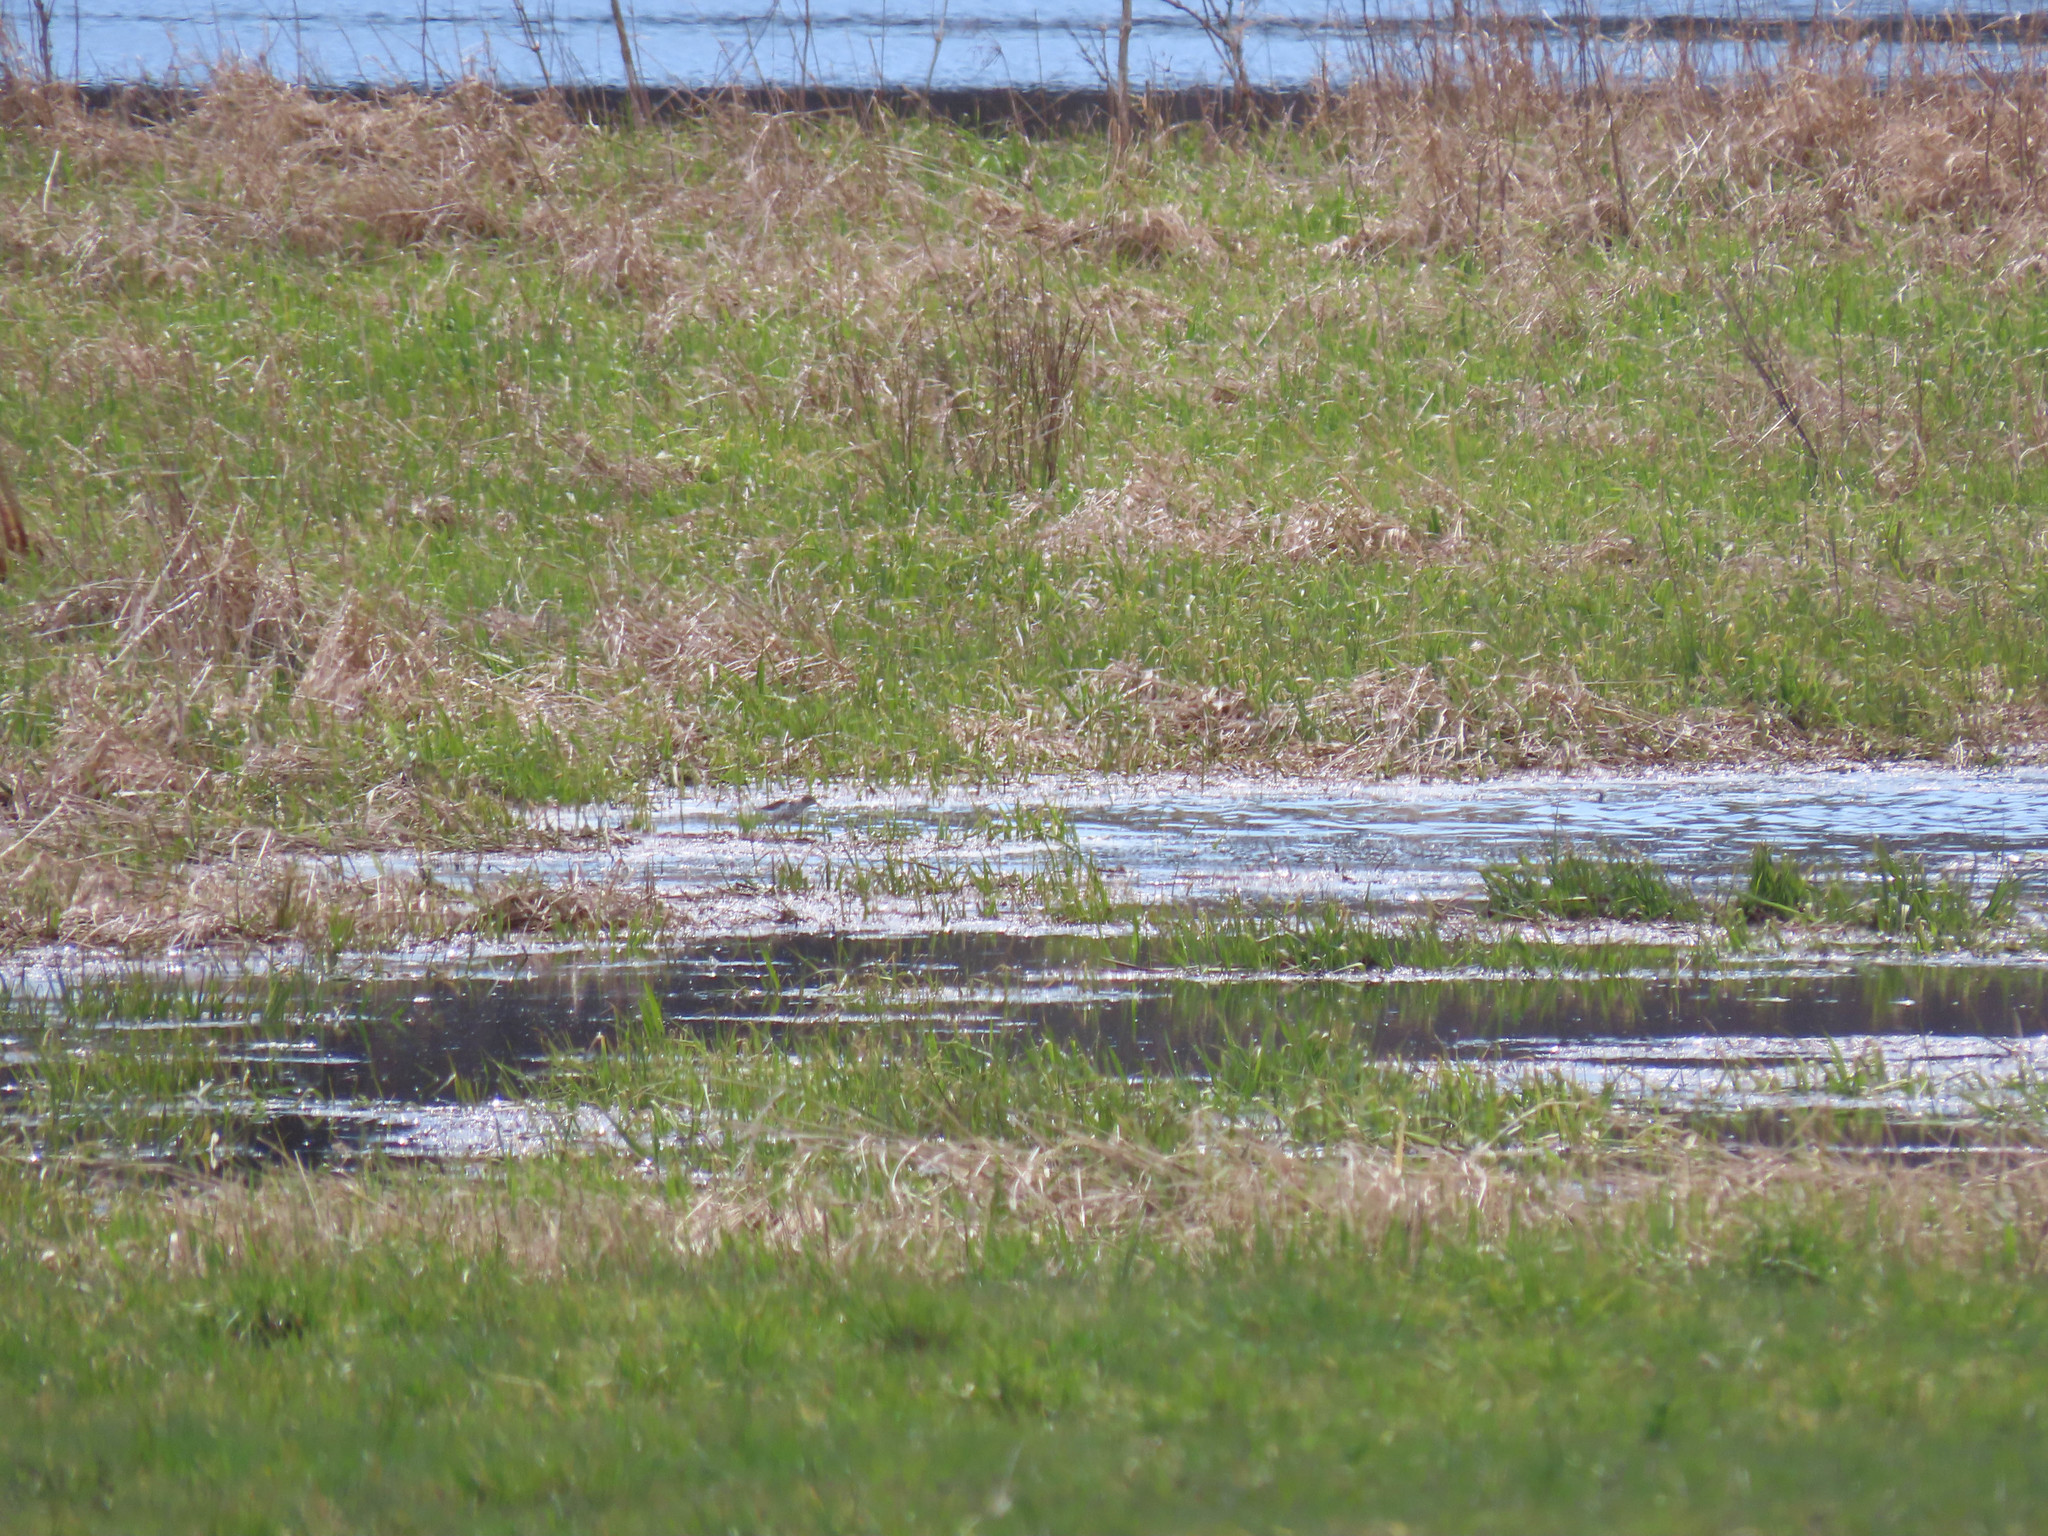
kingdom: Animalia
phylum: Chordata
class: Aves
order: Charadriiformes
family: Scolopacidae
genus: Actitis
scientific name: Actitis macularius
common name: Spotted sandpiper
